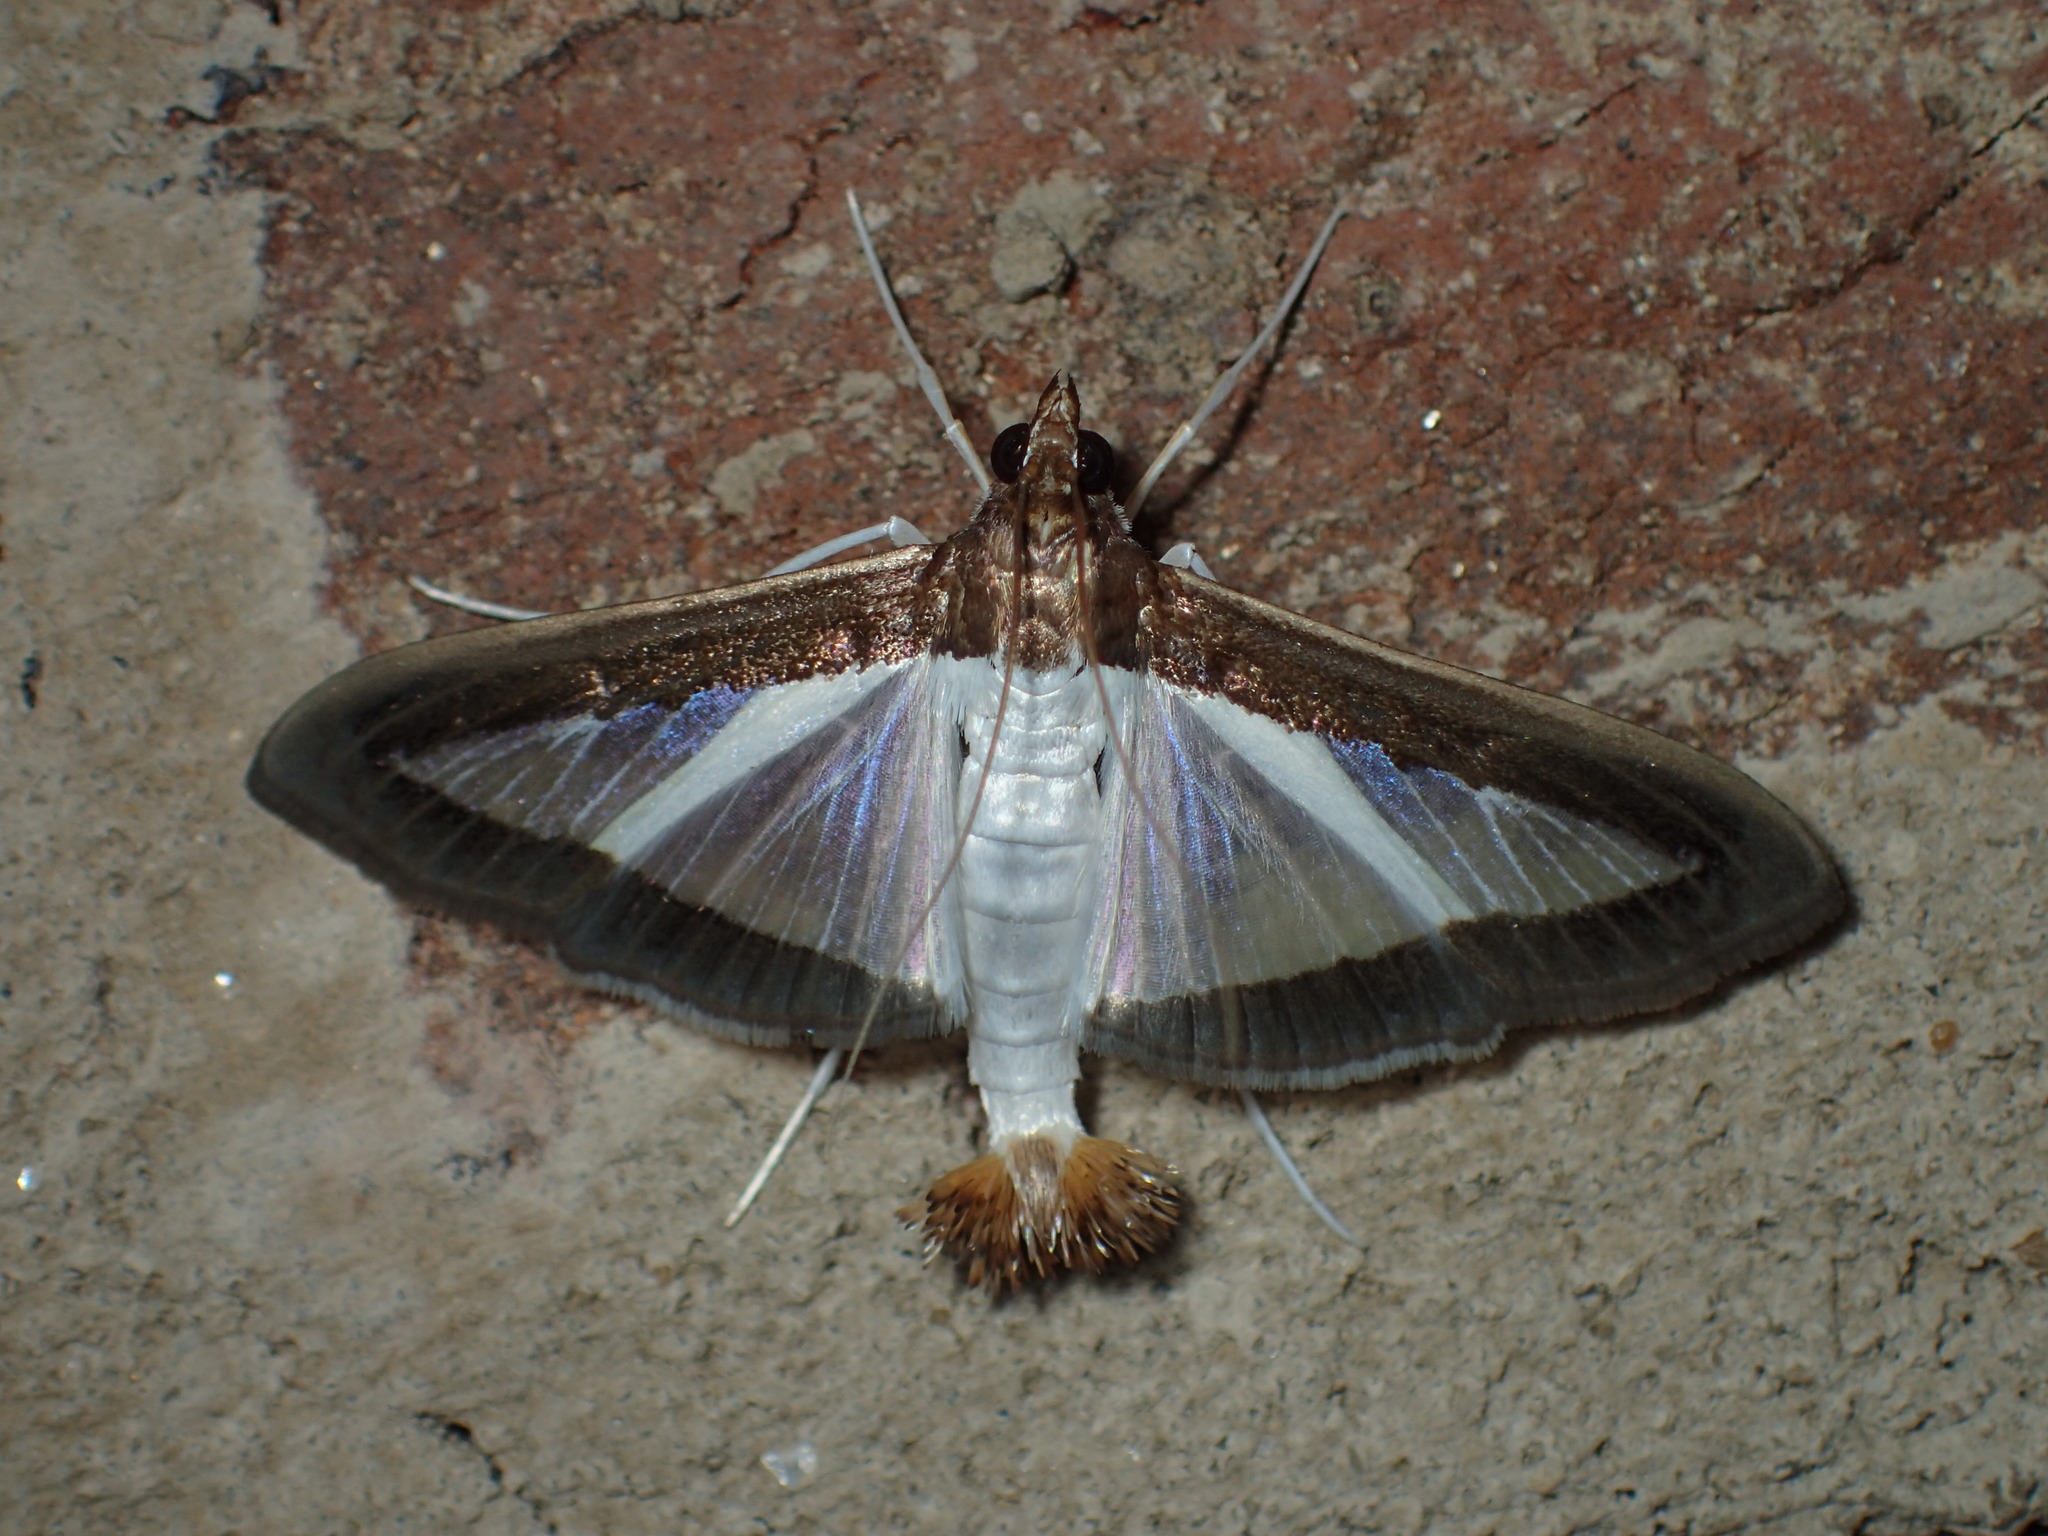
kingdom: Animalia
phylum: Arthropoda
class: Insecta
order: Lepidoptera
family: Crambidae
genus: Diaphania
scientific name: Diaphania hyalinata
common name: Melonworm
